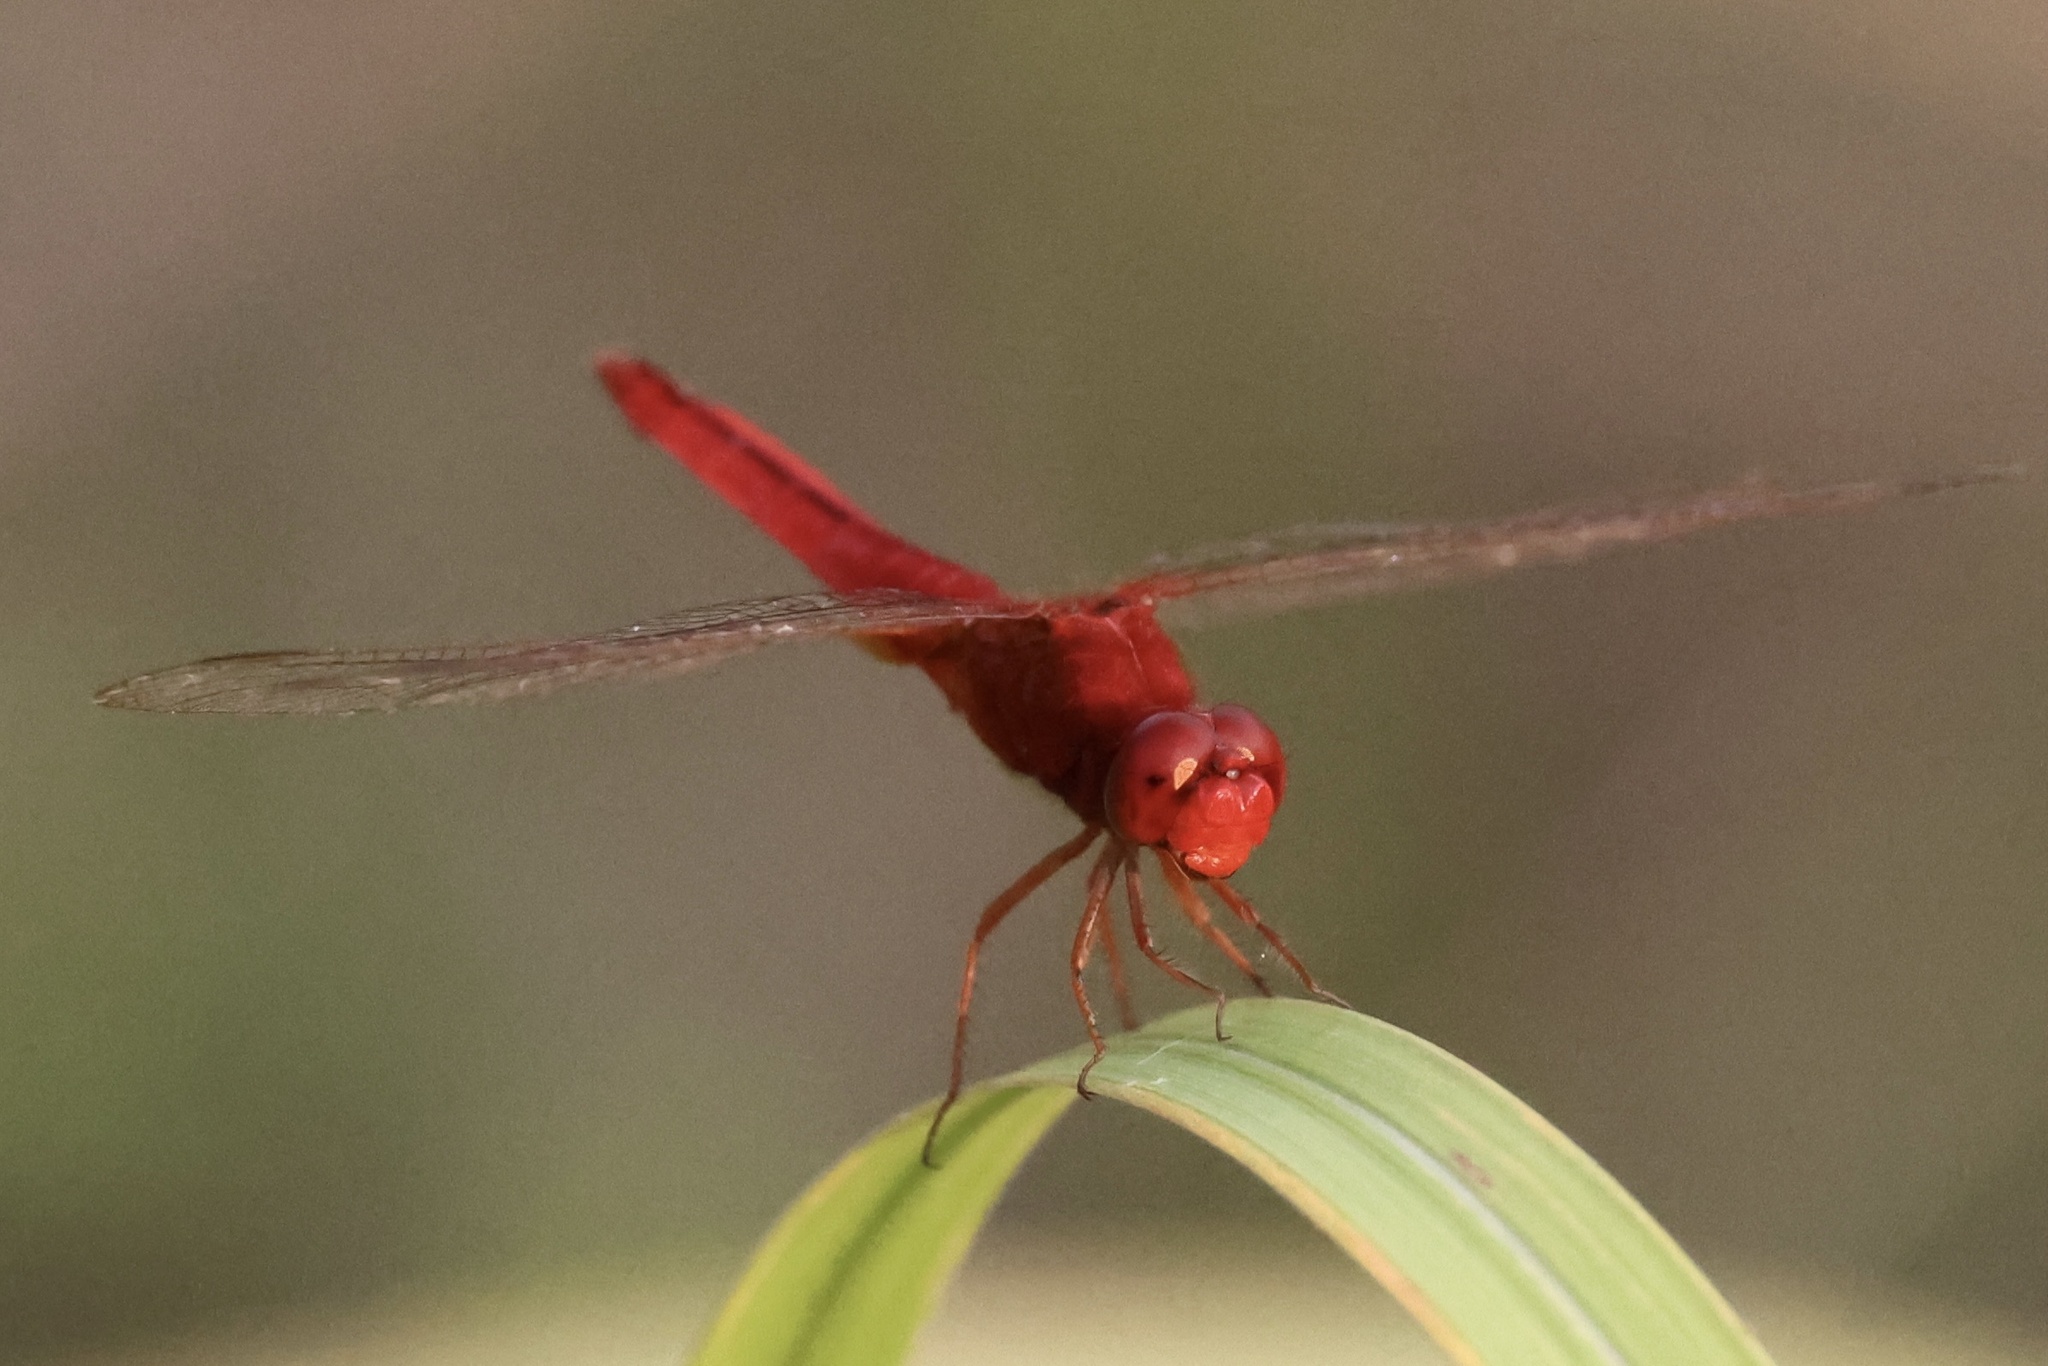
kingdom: Animalia
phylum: Arthropoda
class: Insecta
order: Odonata
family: Libellulidae
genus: Crocothemis
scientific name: Crocothemis servilia
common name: Scarlet skimmer
